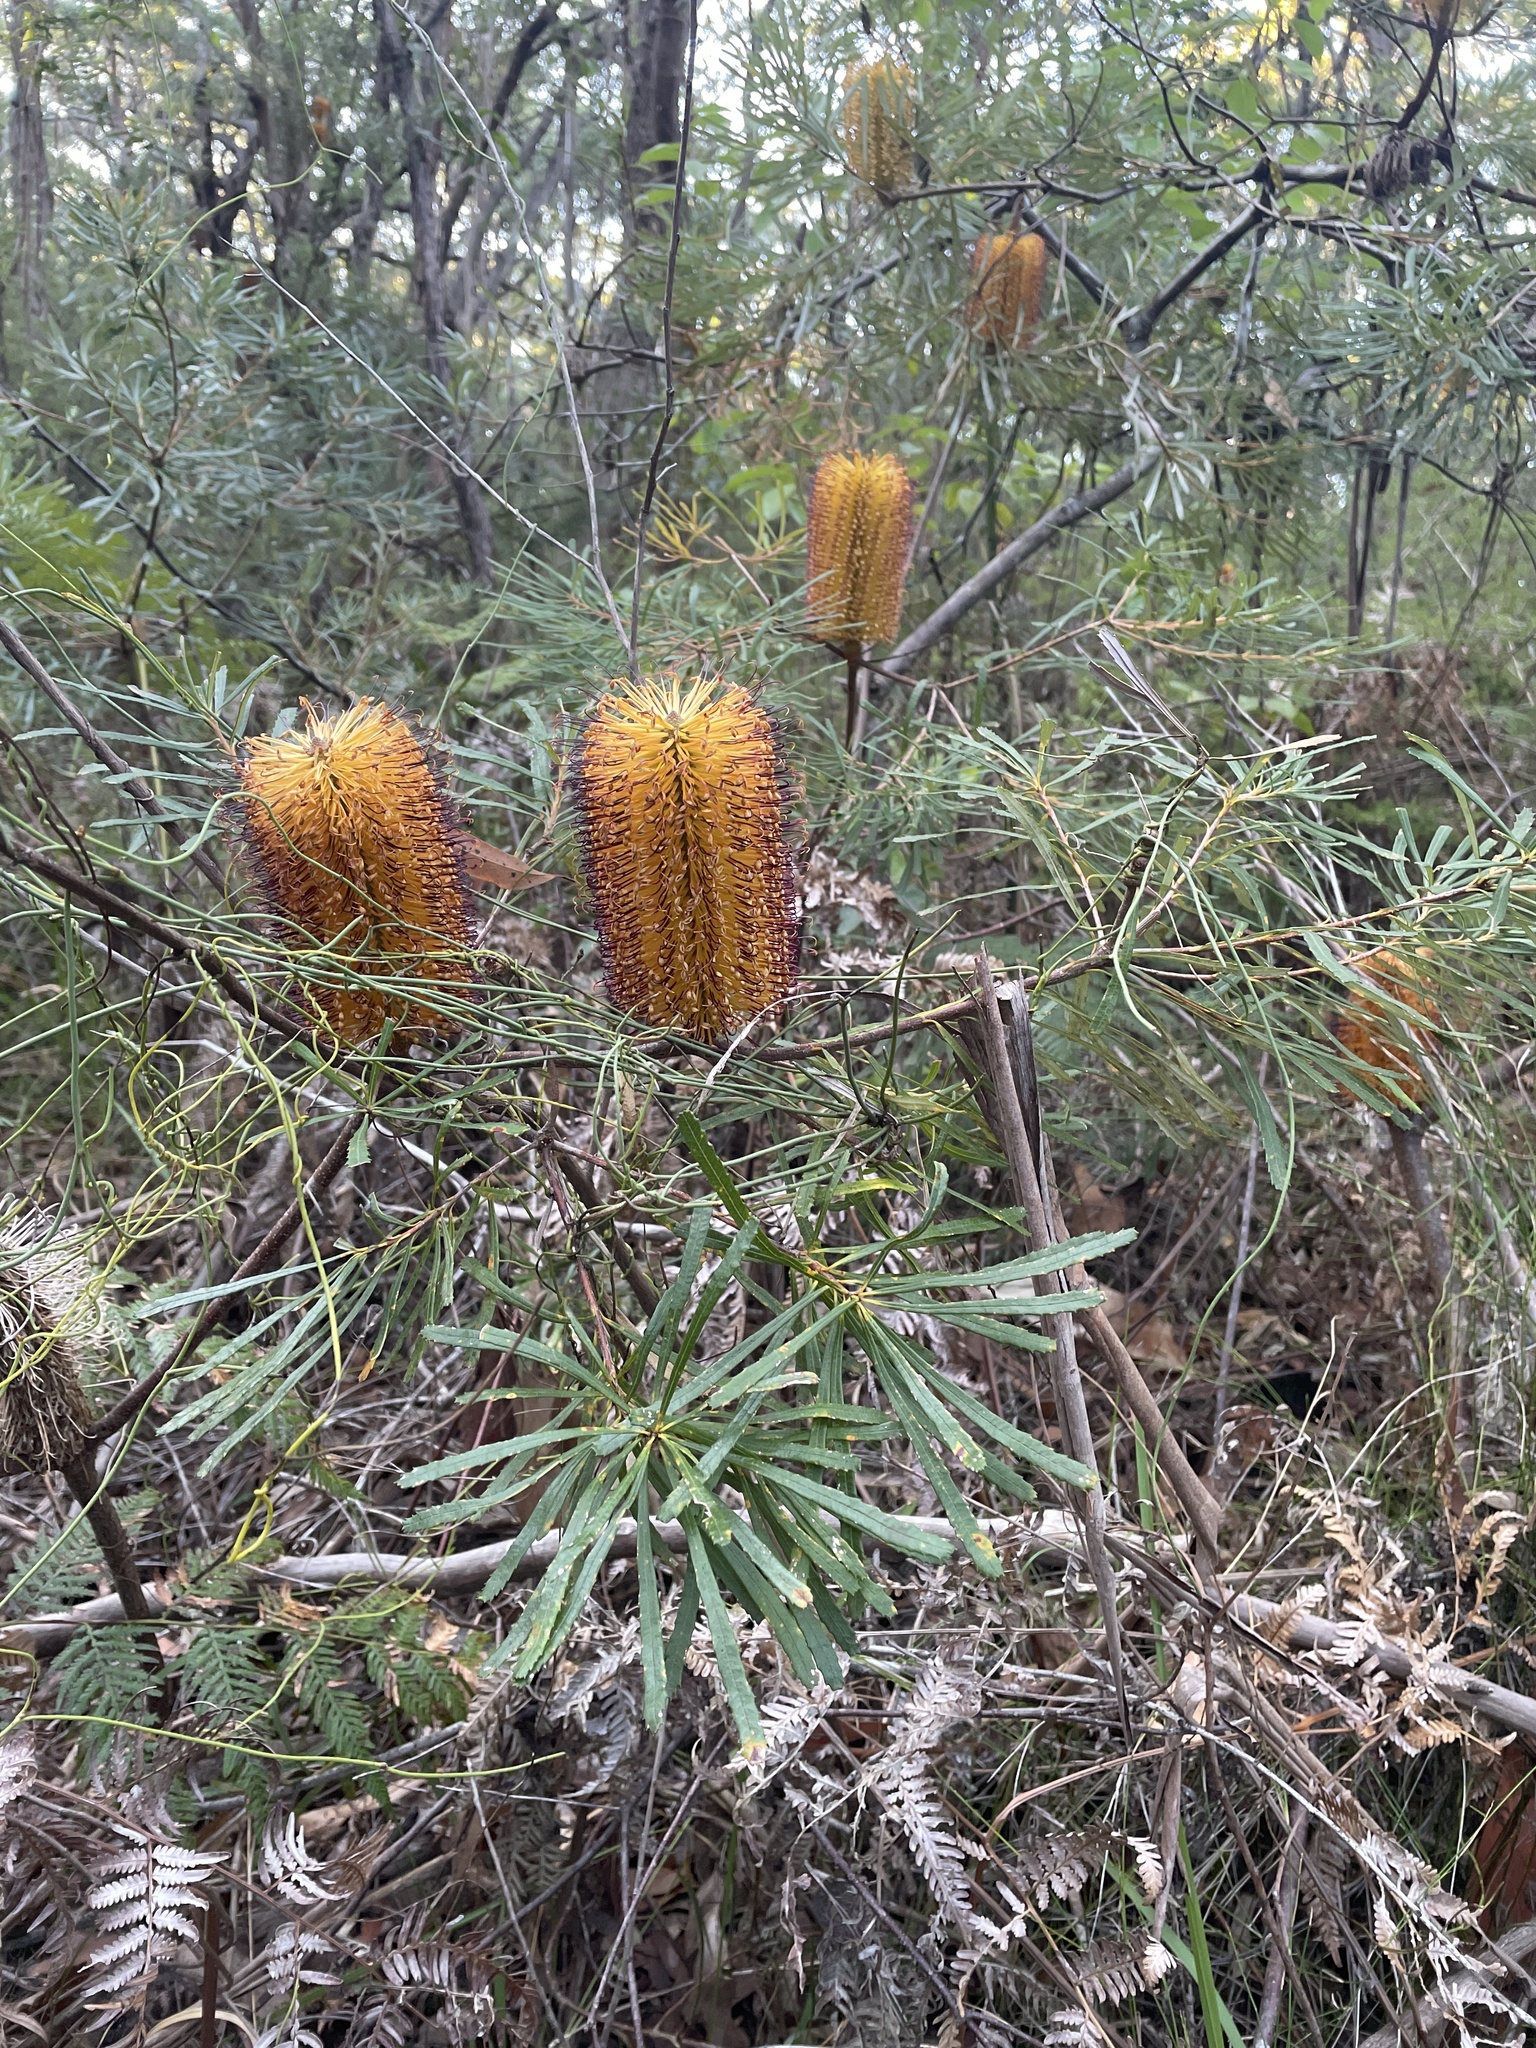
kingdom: Plantae
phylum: Tracheophyta
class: Magnoliopsida
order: Proteales
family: Proteaceae
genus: Banksia
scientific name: Banksia spinulosa
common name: Hairpin banksia
